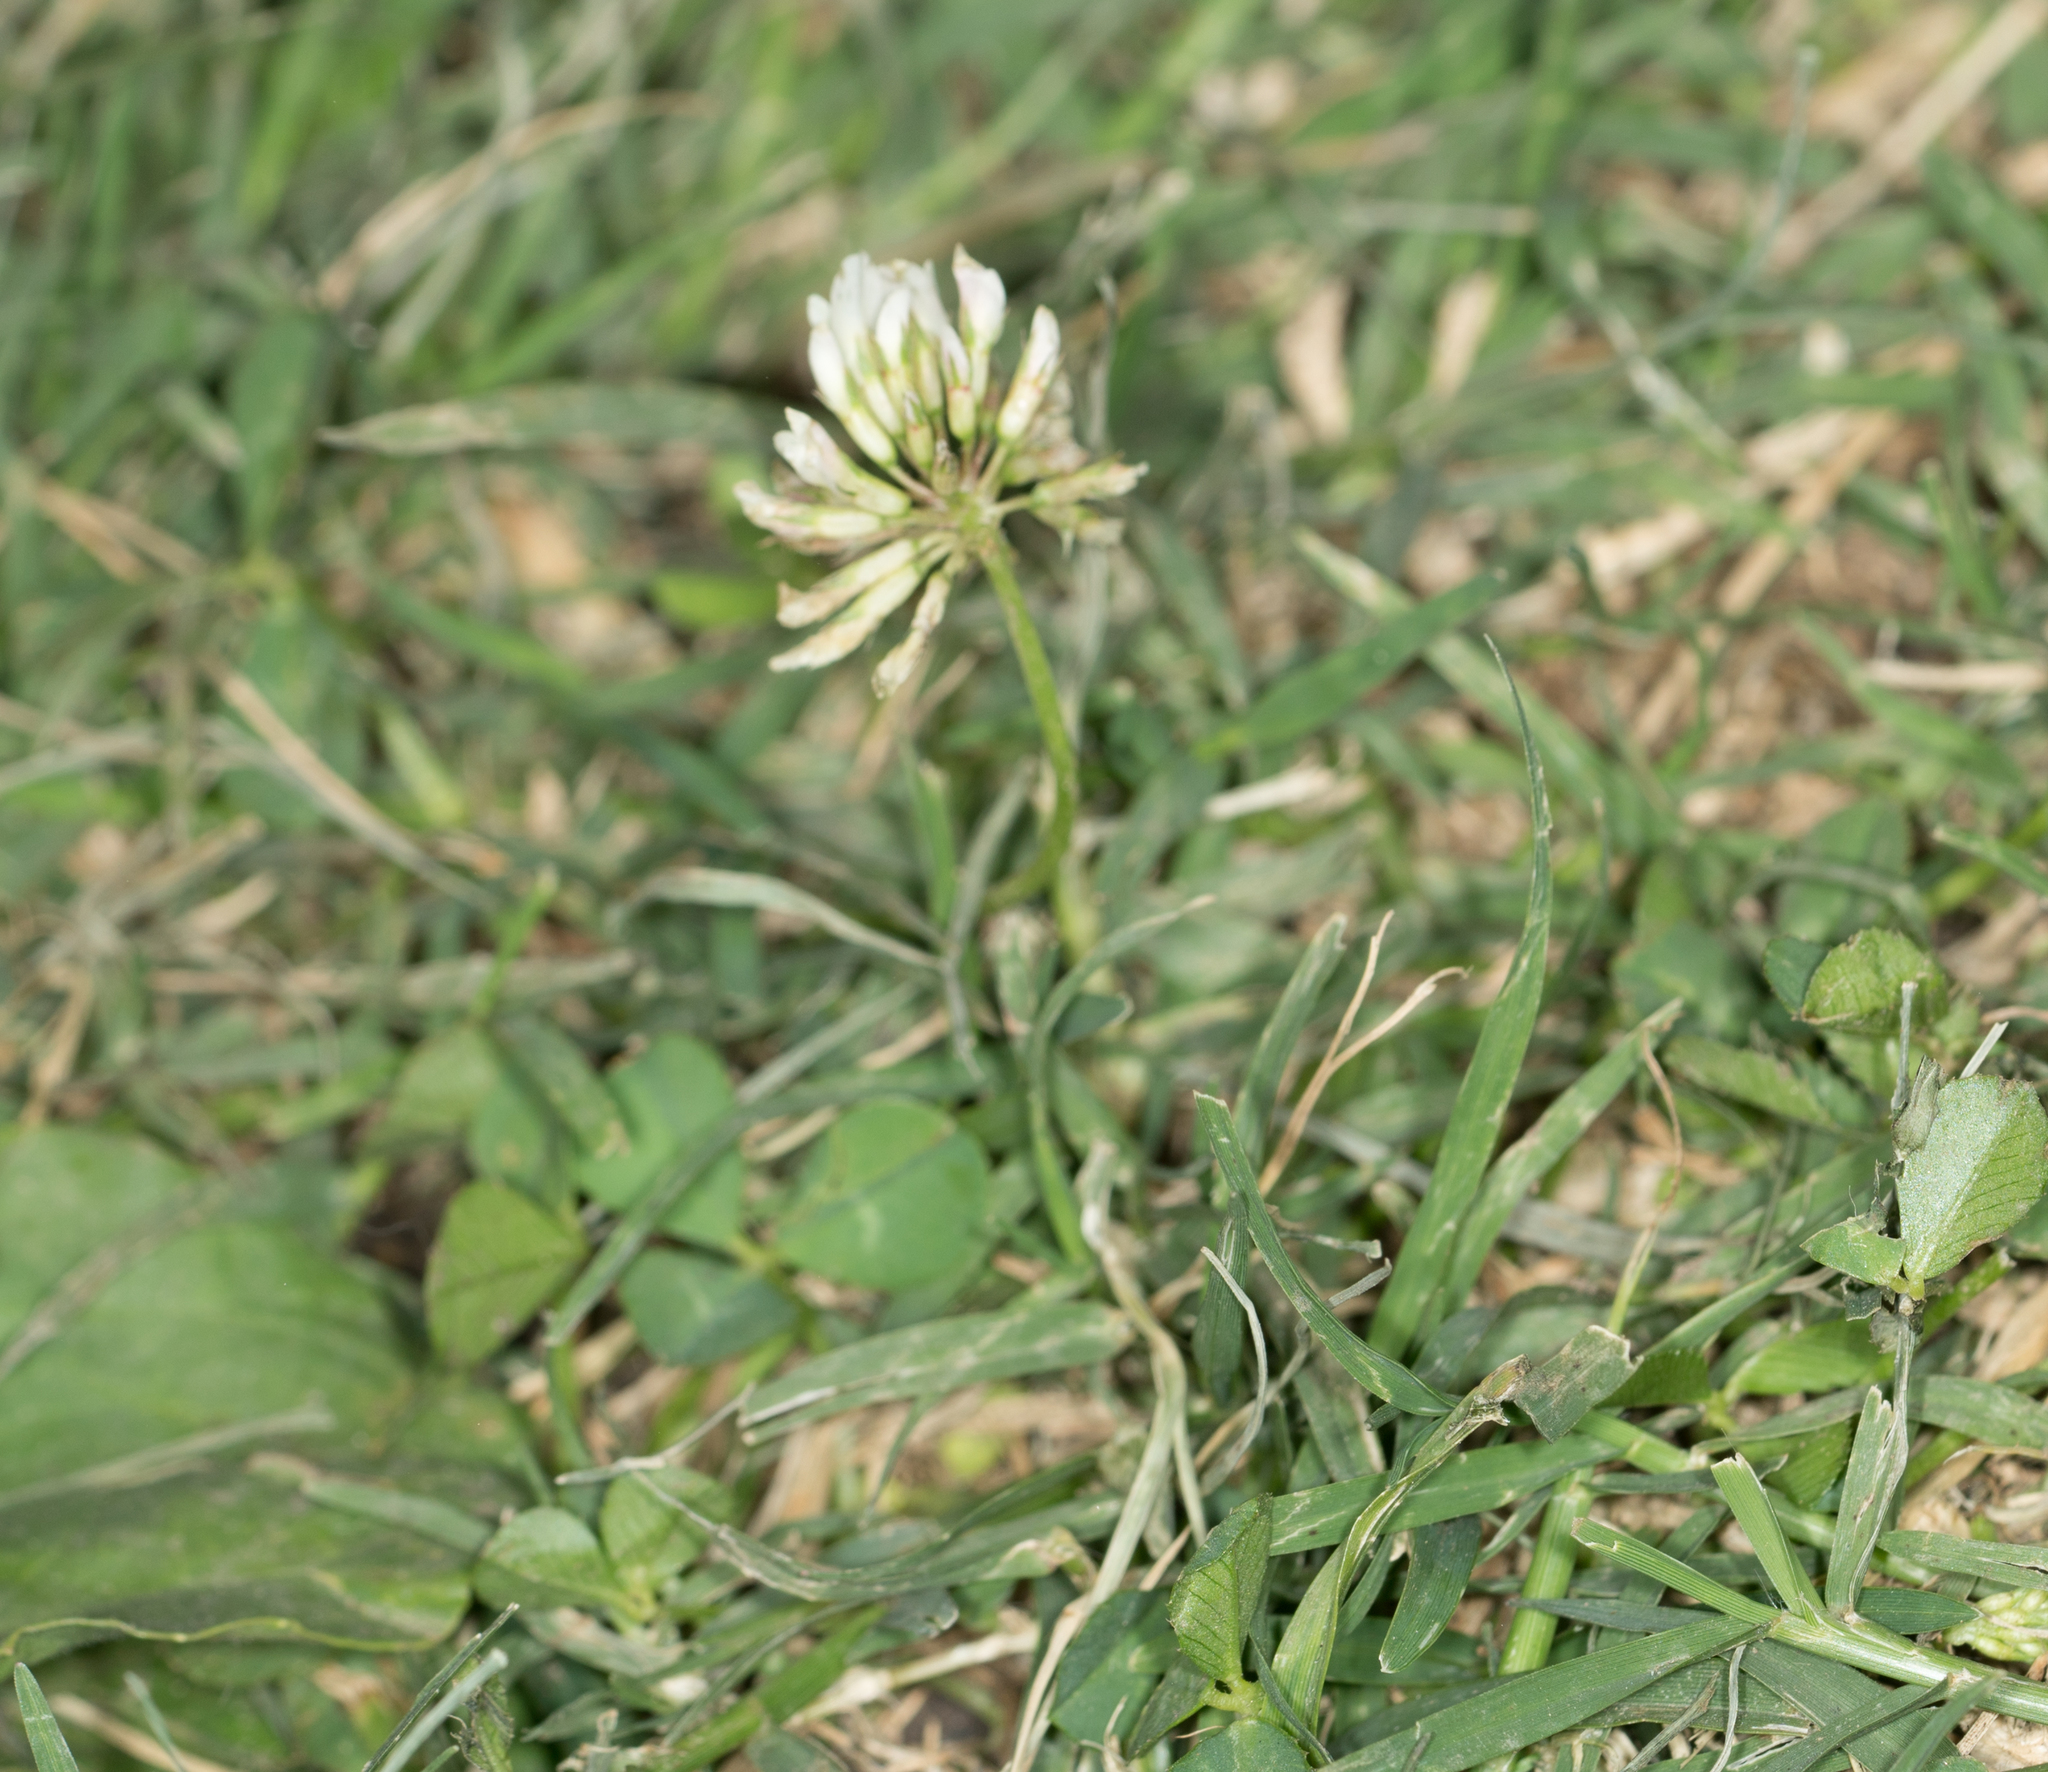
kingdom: Plantae
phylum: Tracheophyta
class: Magnoliopsida
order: Fabales
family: Fabaceae
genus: Trifolium
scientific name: Trifolium repens
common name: White clover
